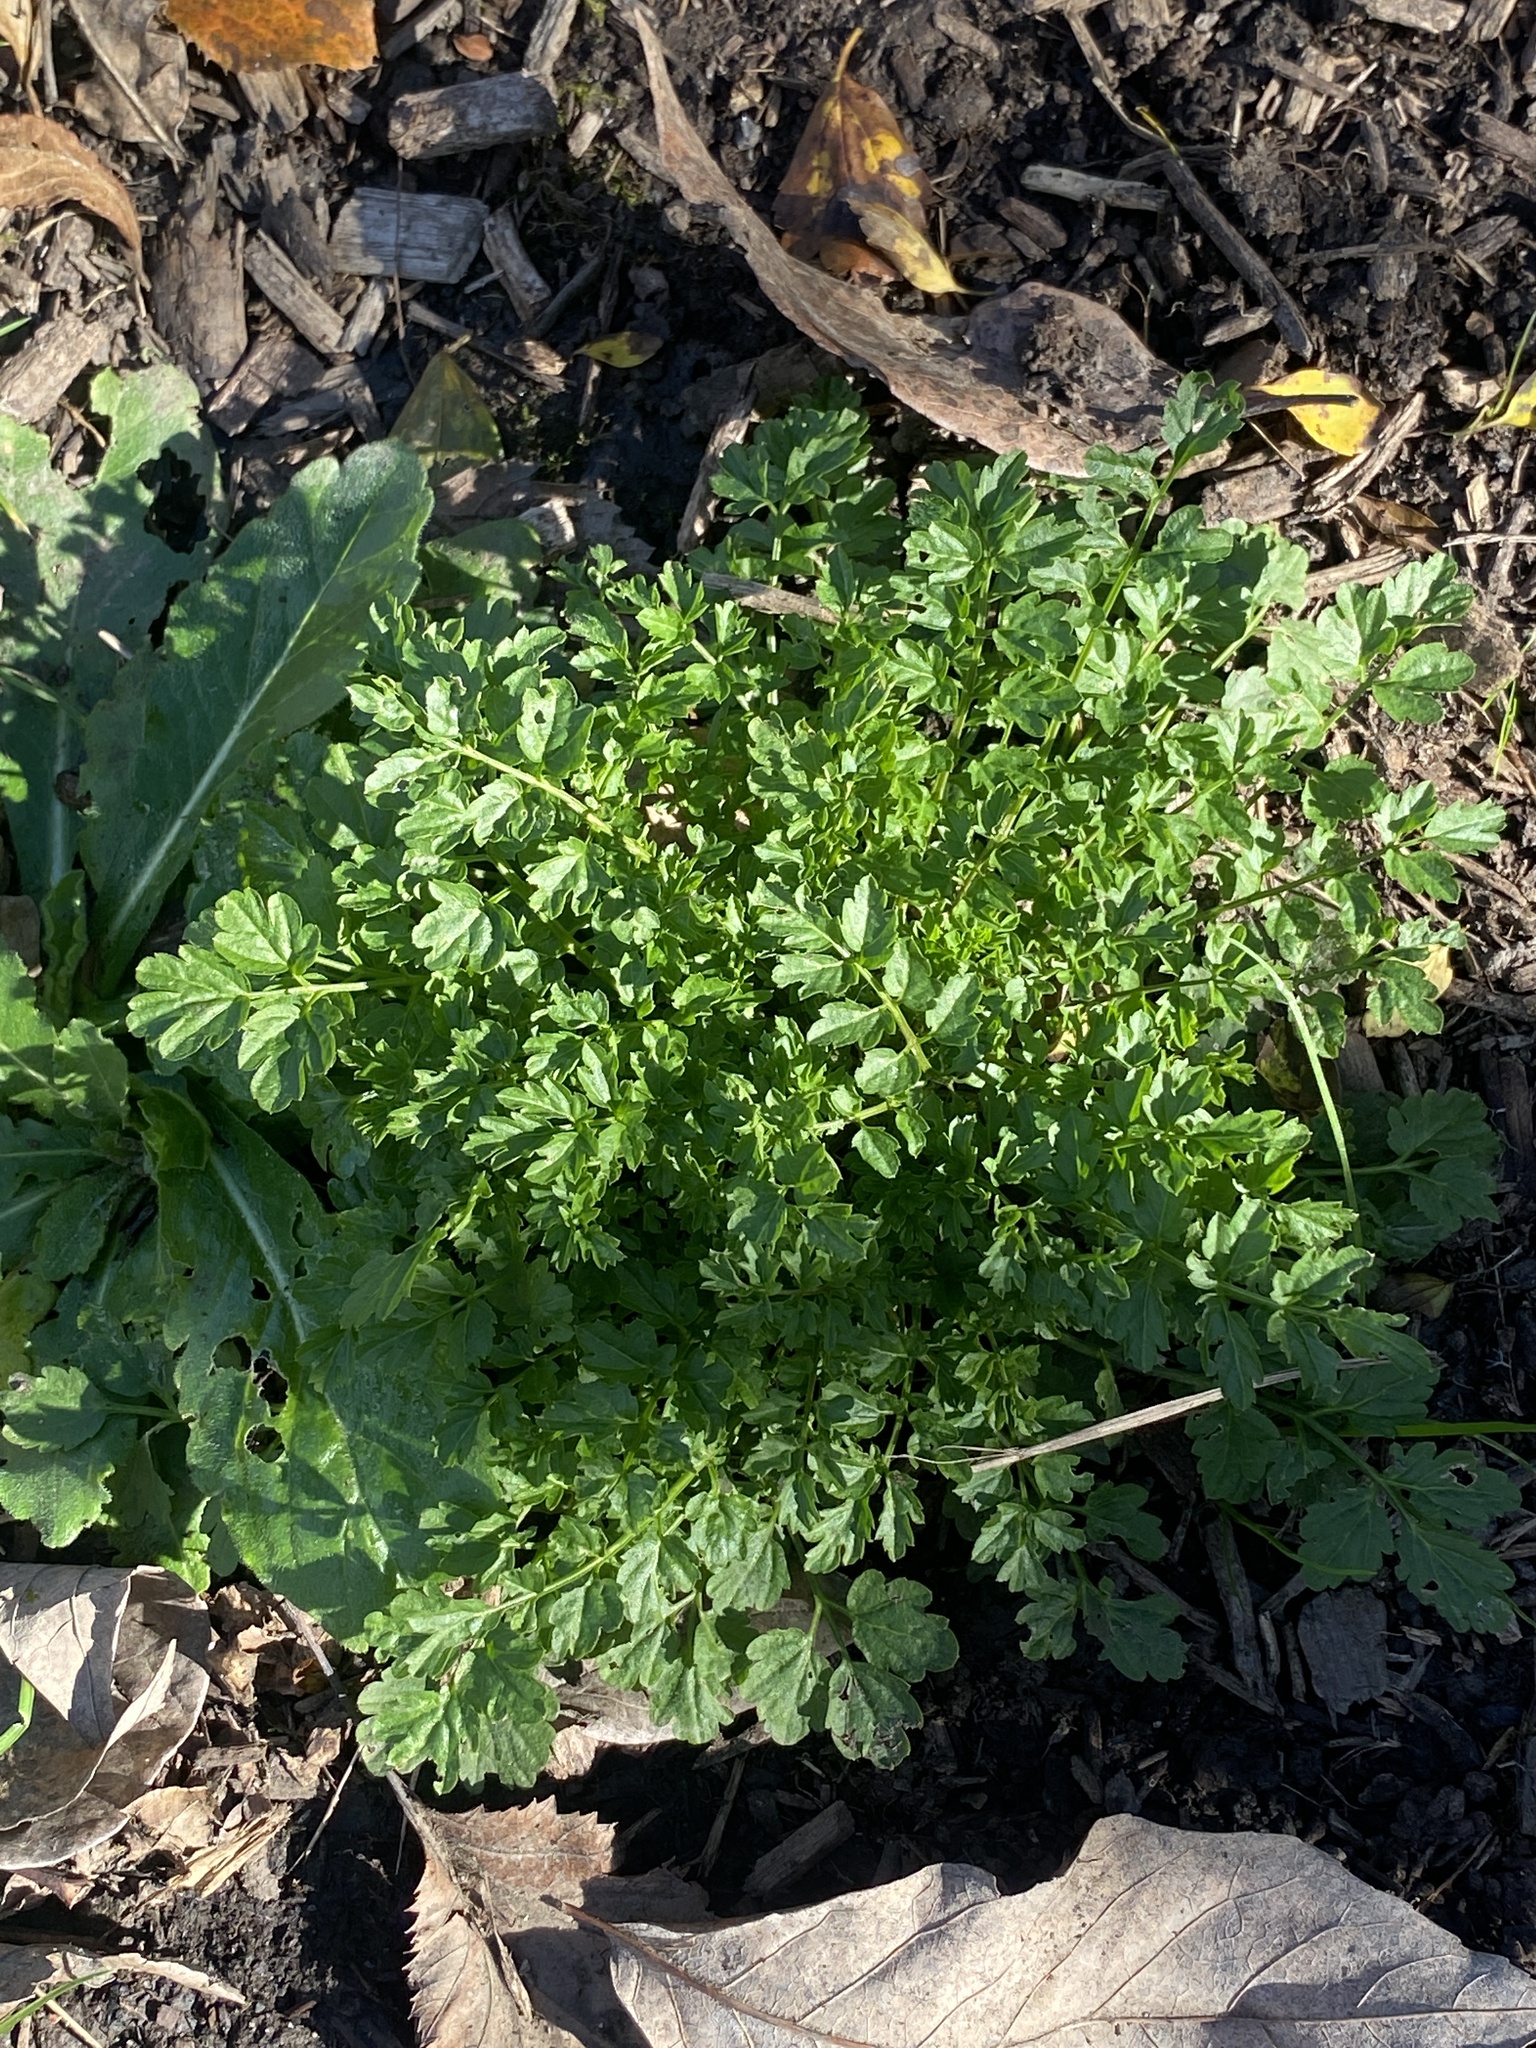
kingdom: Plantae
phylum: Tracheophyta
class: Magnoliopsida
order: Brassicales
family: Brassicaceae
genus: Cardamine
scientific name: Cardamine impatiens
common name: Narrow-leaved bitter-cress
